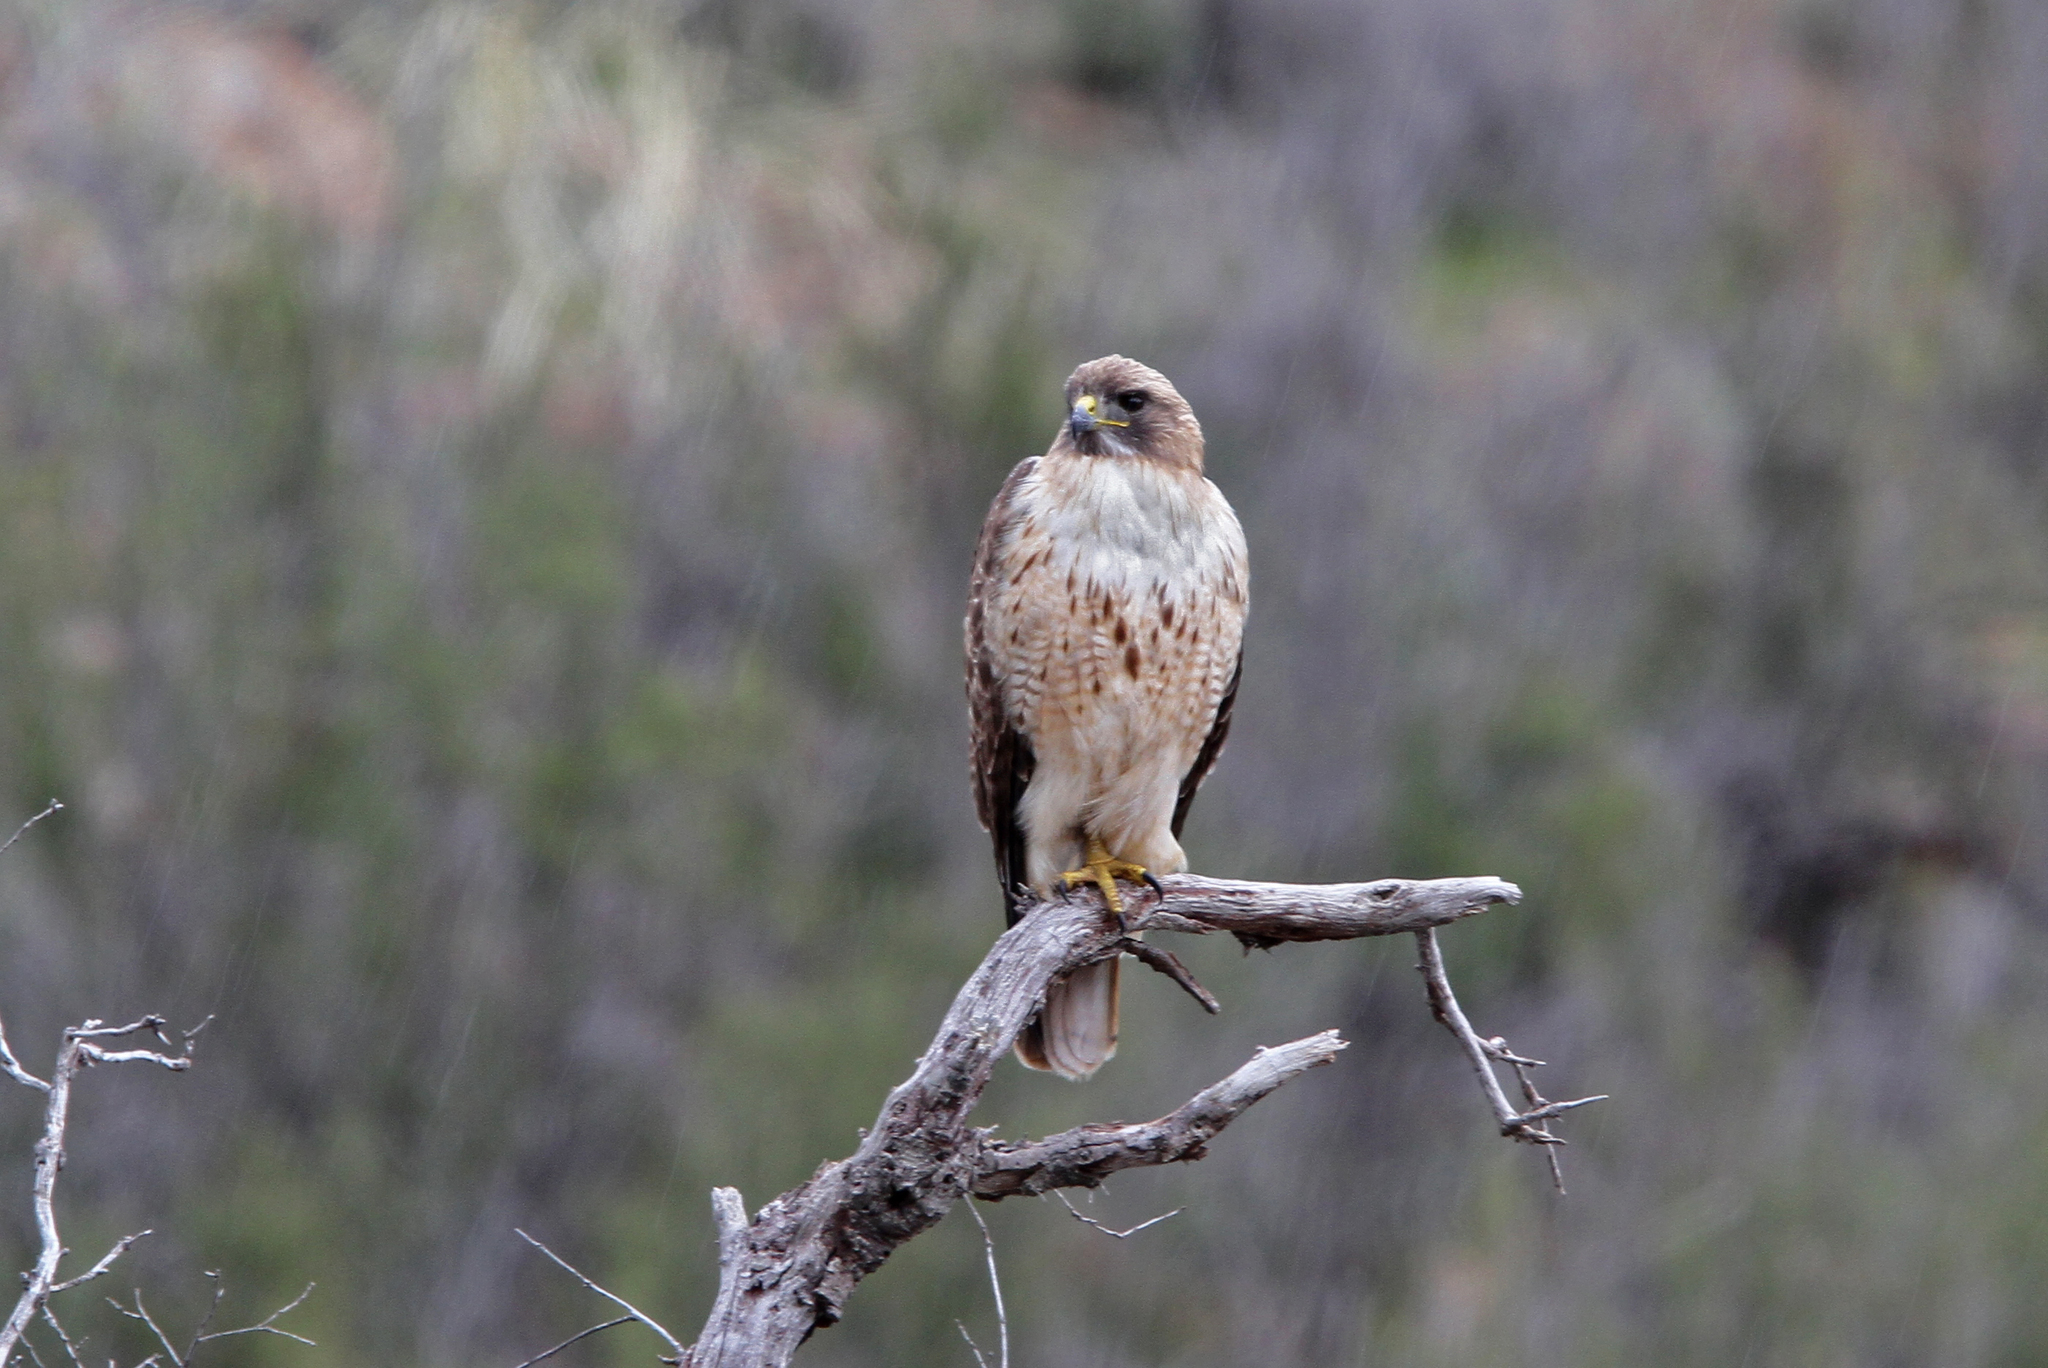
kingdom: Animalia
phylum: Chordata
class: Aves
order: Accipitriformes
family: Accipitridae
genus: Buteo
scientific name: Buteo jamaicensis
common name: Red-tailed hawk
